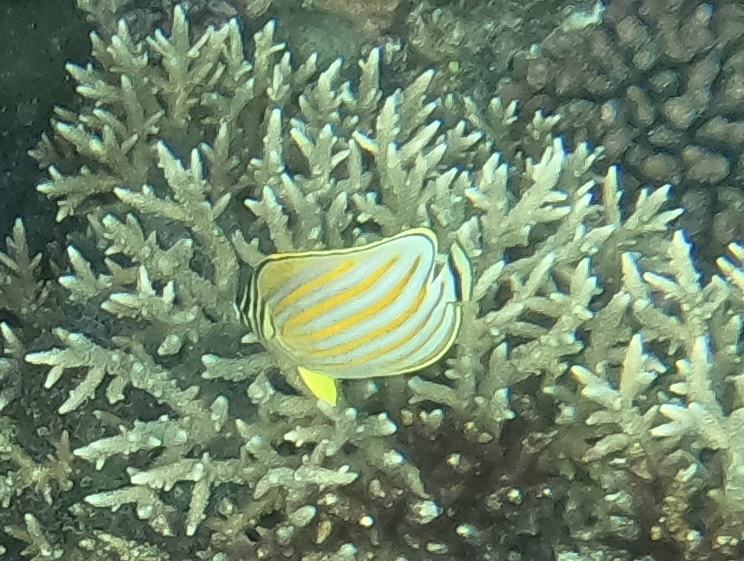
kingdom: Animalia
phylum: Chordata
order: Perciformes
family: Chaetodontidae
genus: Chaetodon
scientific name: Chaetodon ornatissimus
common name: Ornate butterflyfish
